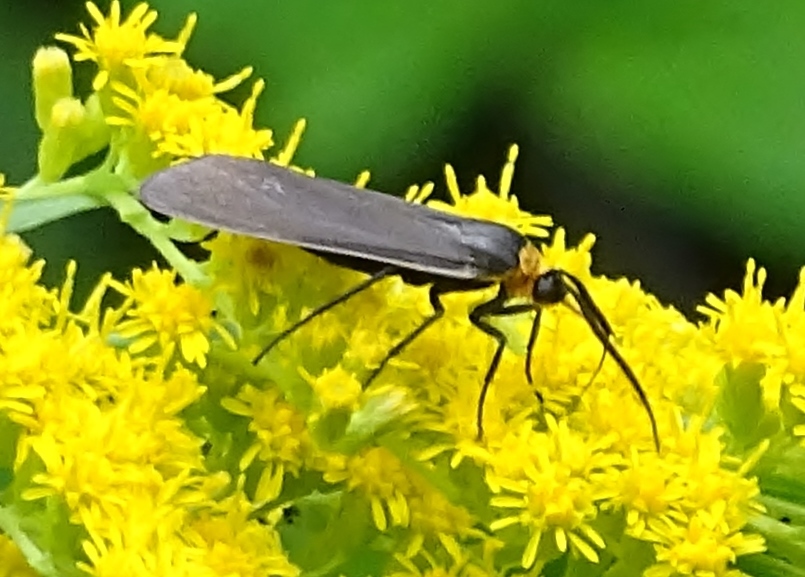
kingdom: Animalia
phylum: Arthropoda
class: Insecta
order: Lepidoptera
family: Erebidae
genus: Cisseps
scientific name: Cisseps fulvicollis
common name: Yellow-collared scape moth
